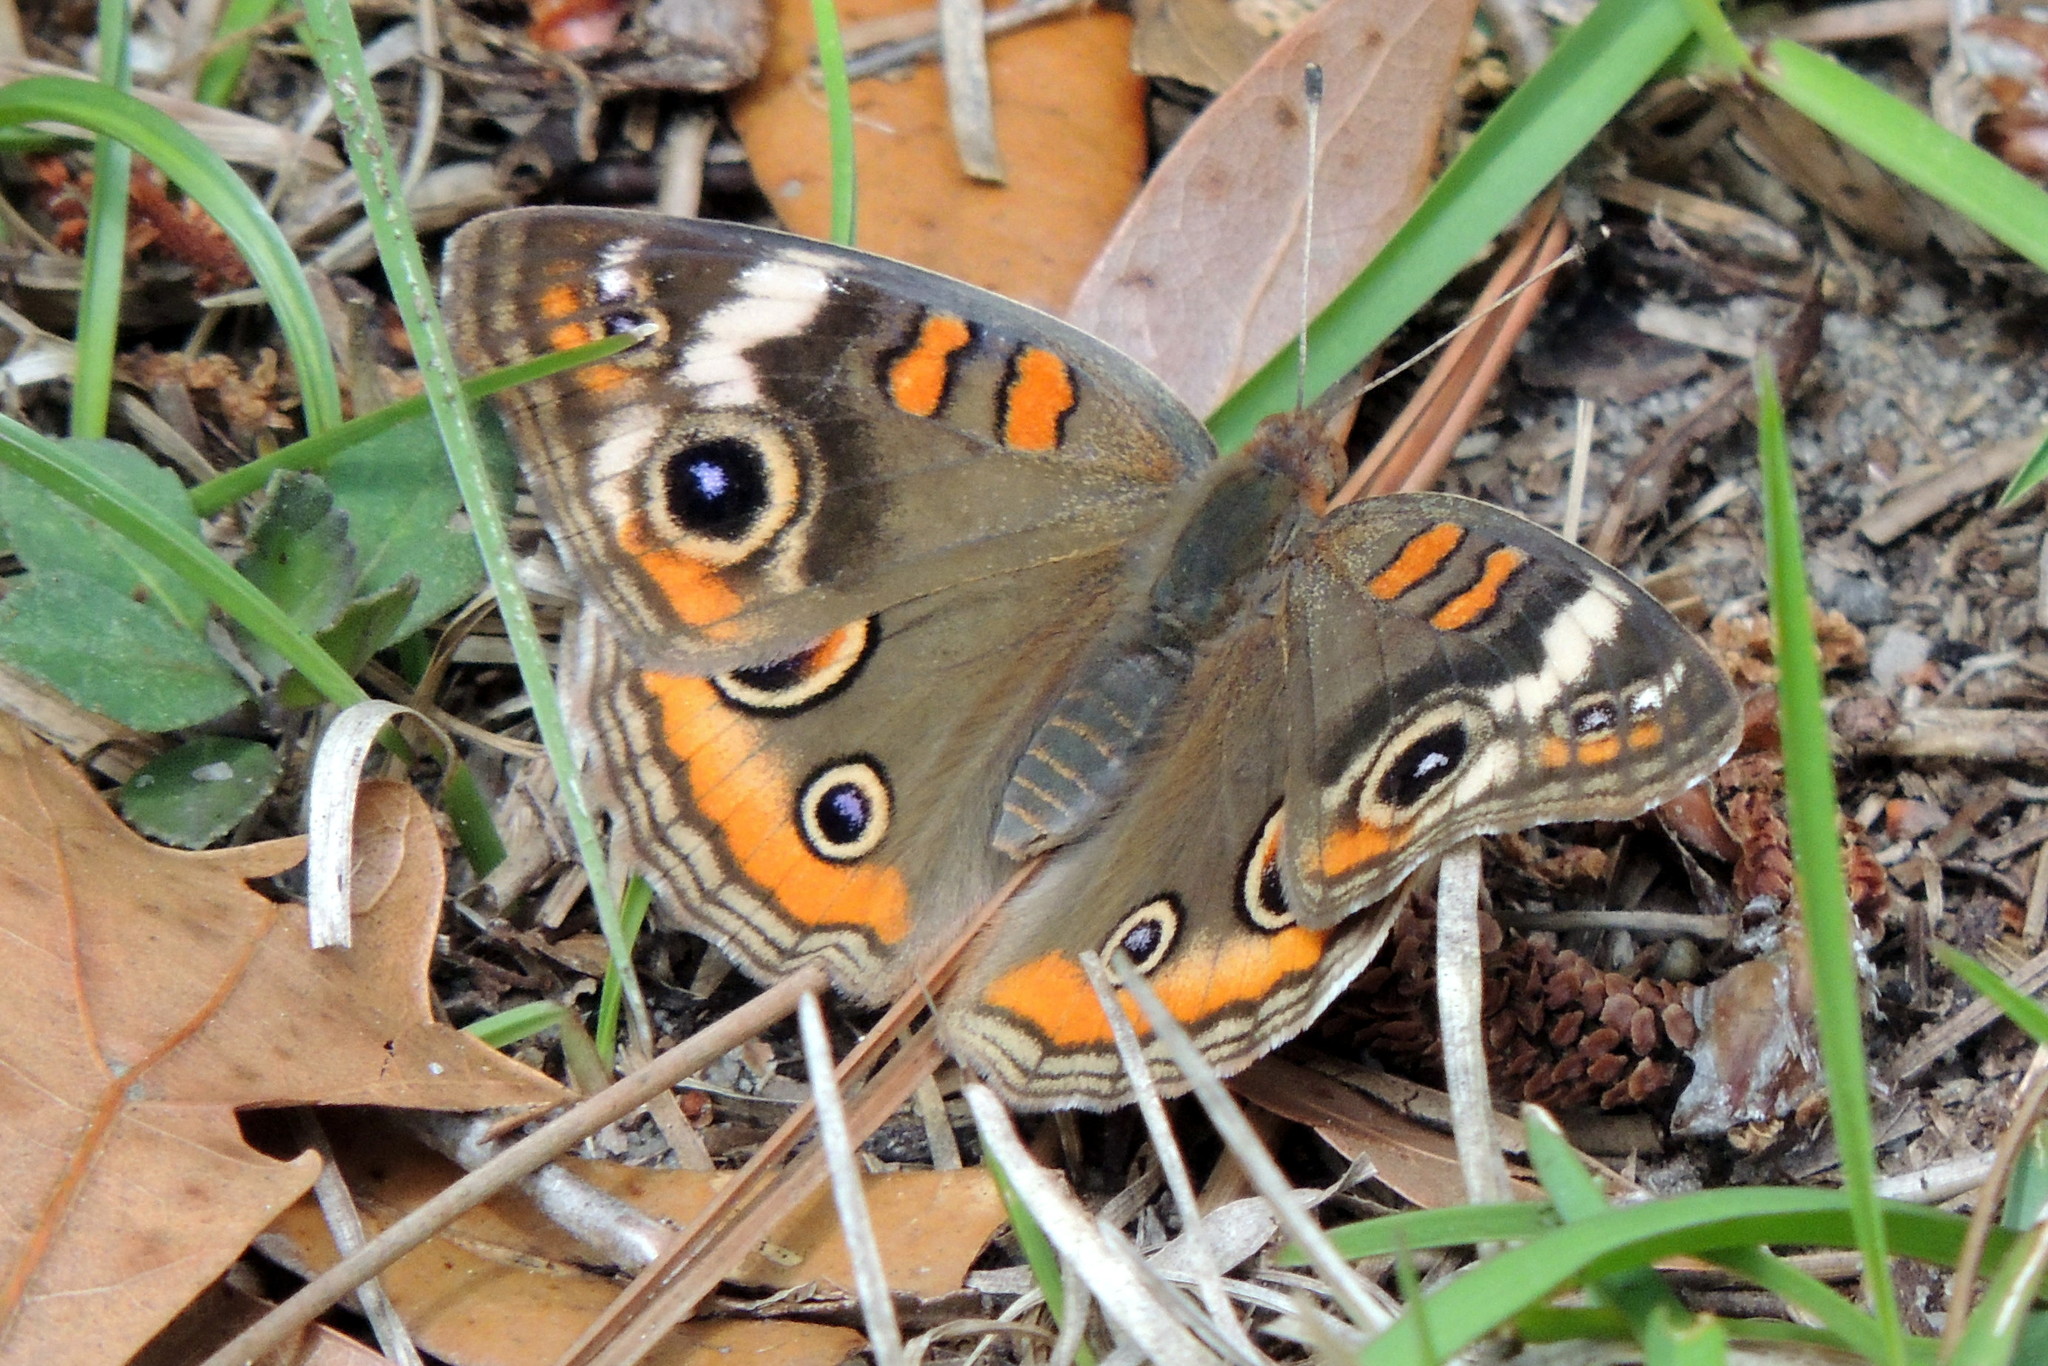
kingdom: Animalia
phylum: Arthropoda
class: Insecta
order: Lepidoptera
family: Nymphalidae
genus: Junonia
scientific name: Junonia coenia
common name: Common buckeye
